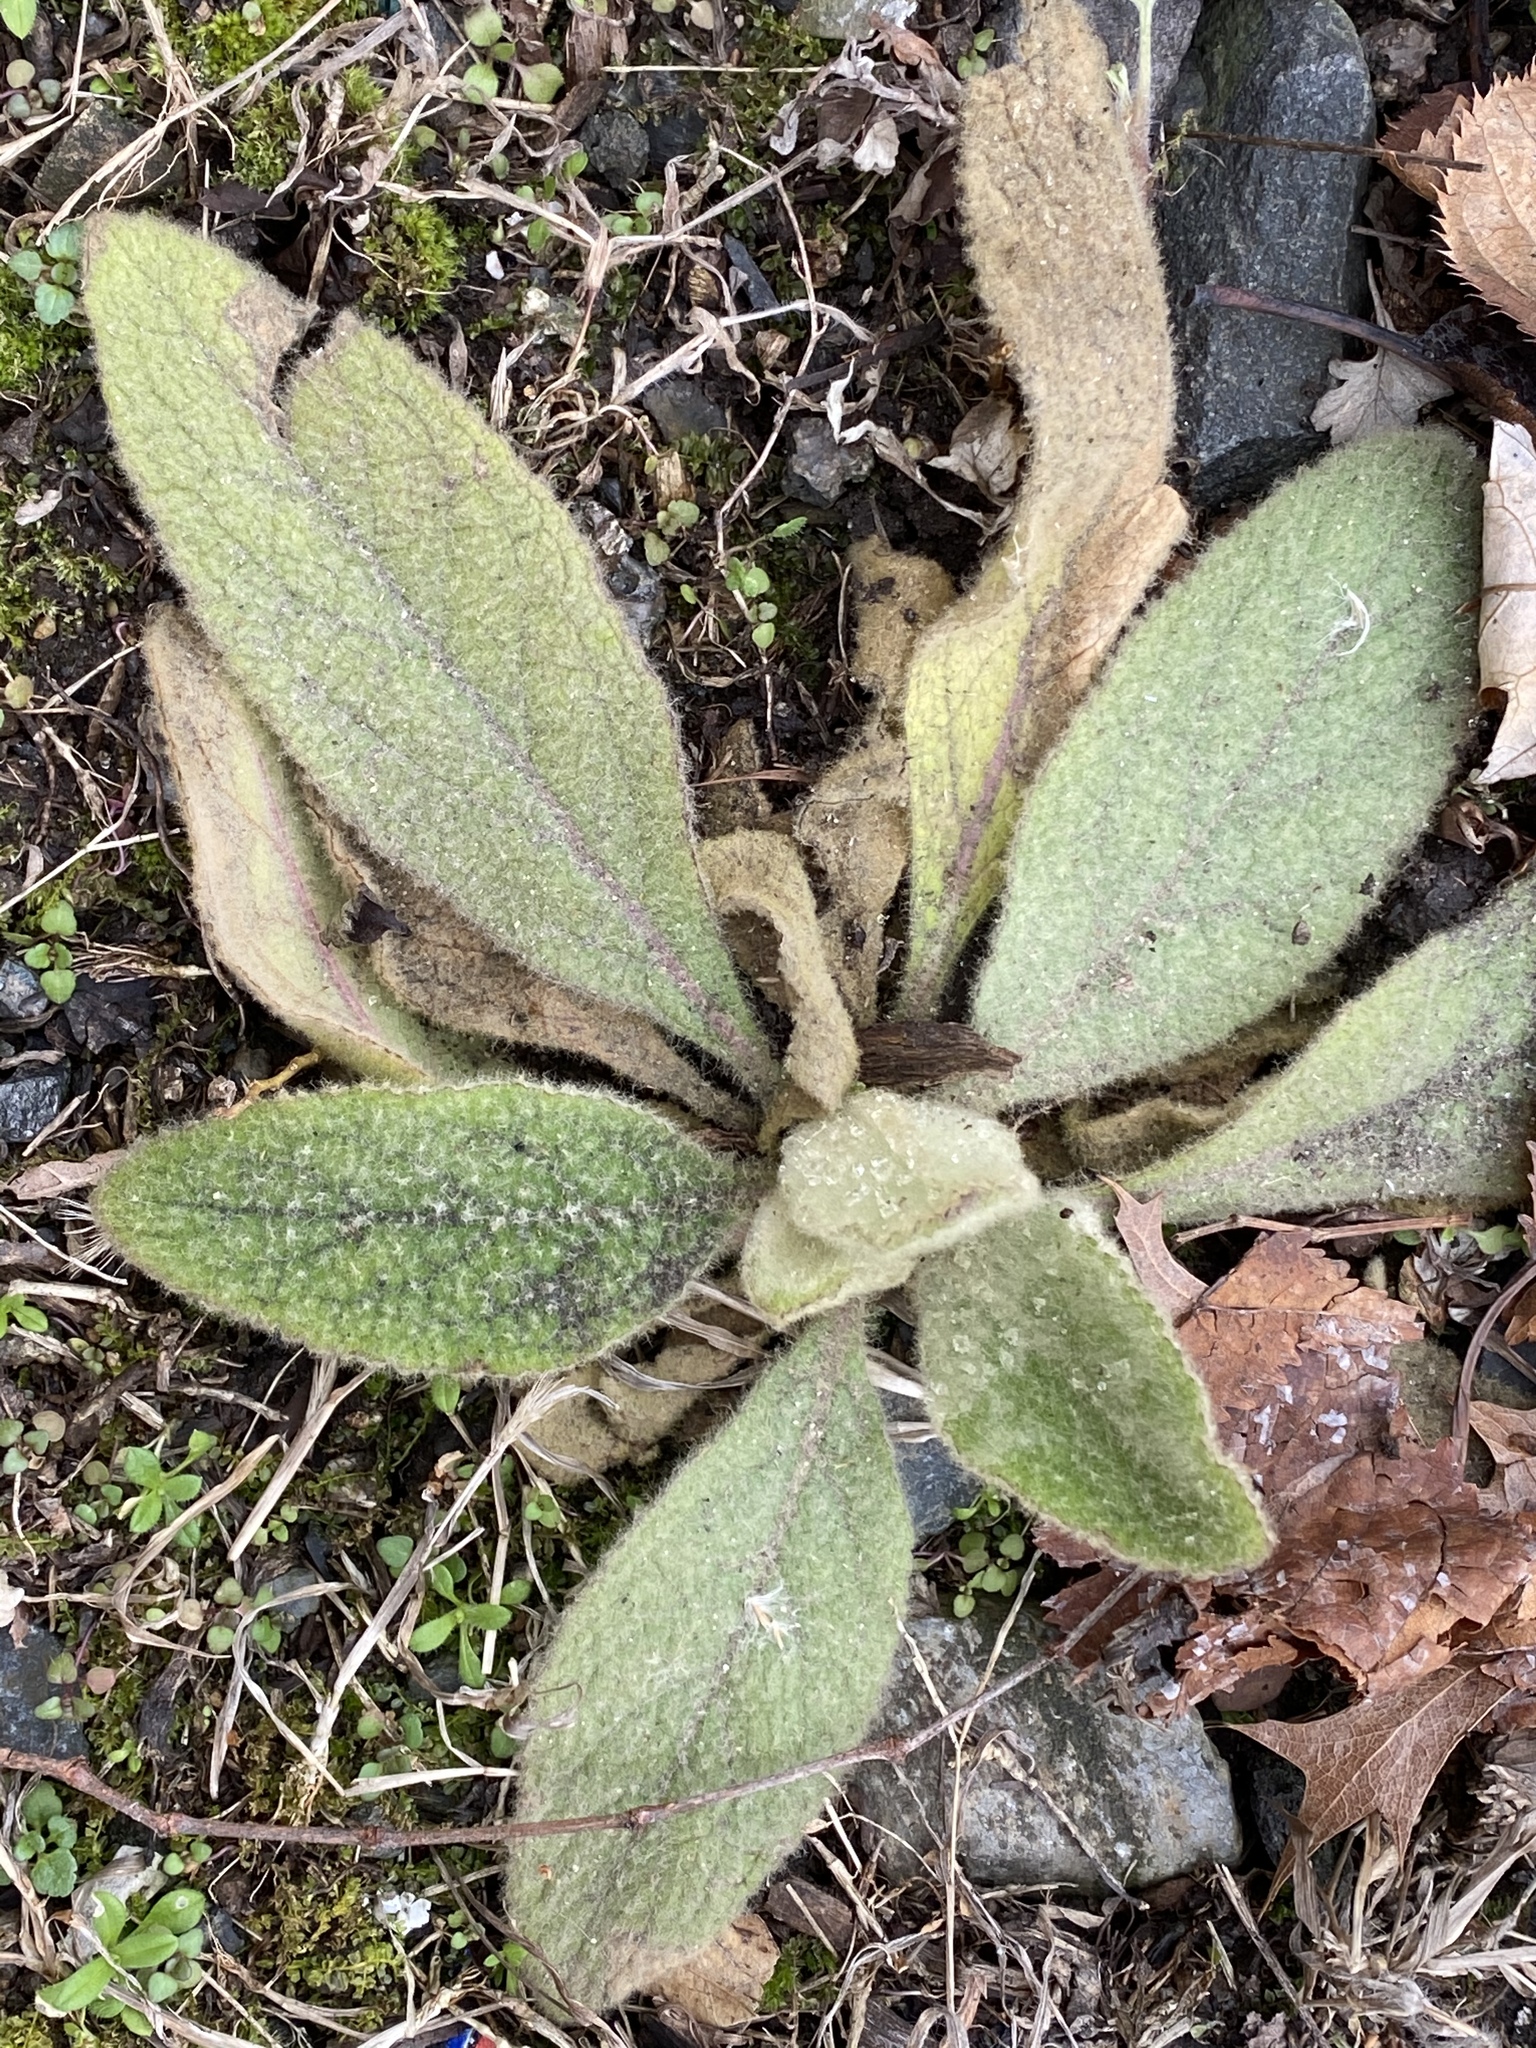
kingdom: Plantae
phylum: Tracheophyta
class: Magnoliopsida
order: Lamiales
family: Scrophulariaceae
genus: Verbascum
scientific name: Verbascum thapsus
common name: Common mullein
